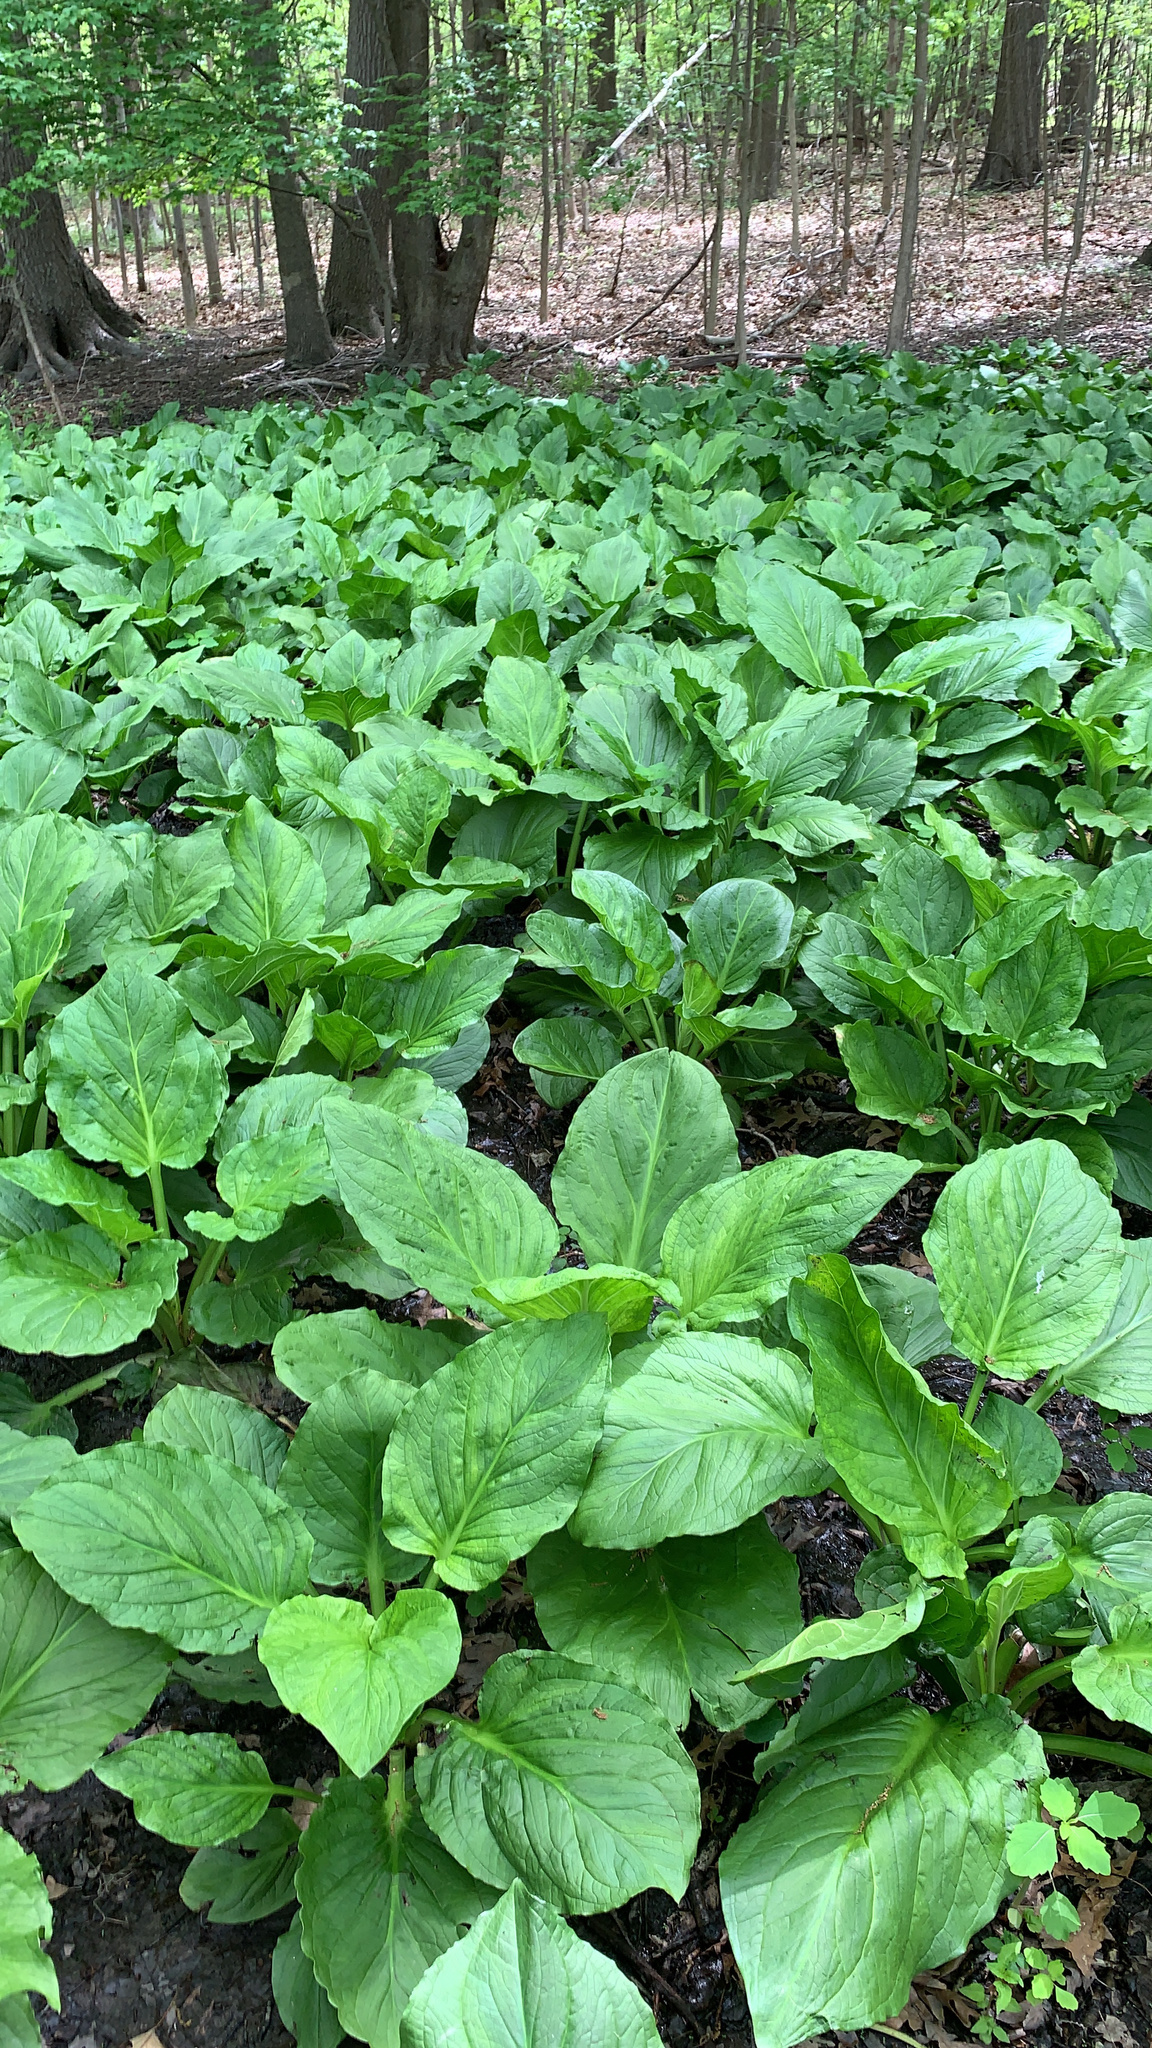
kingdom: Plantae
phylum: Tracheophyta
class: Liliopsida
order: Alismatales
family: Araceae
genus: Symplocarpus
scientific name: Symplocarpus foetidus
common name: Eastern skunk cabbage
